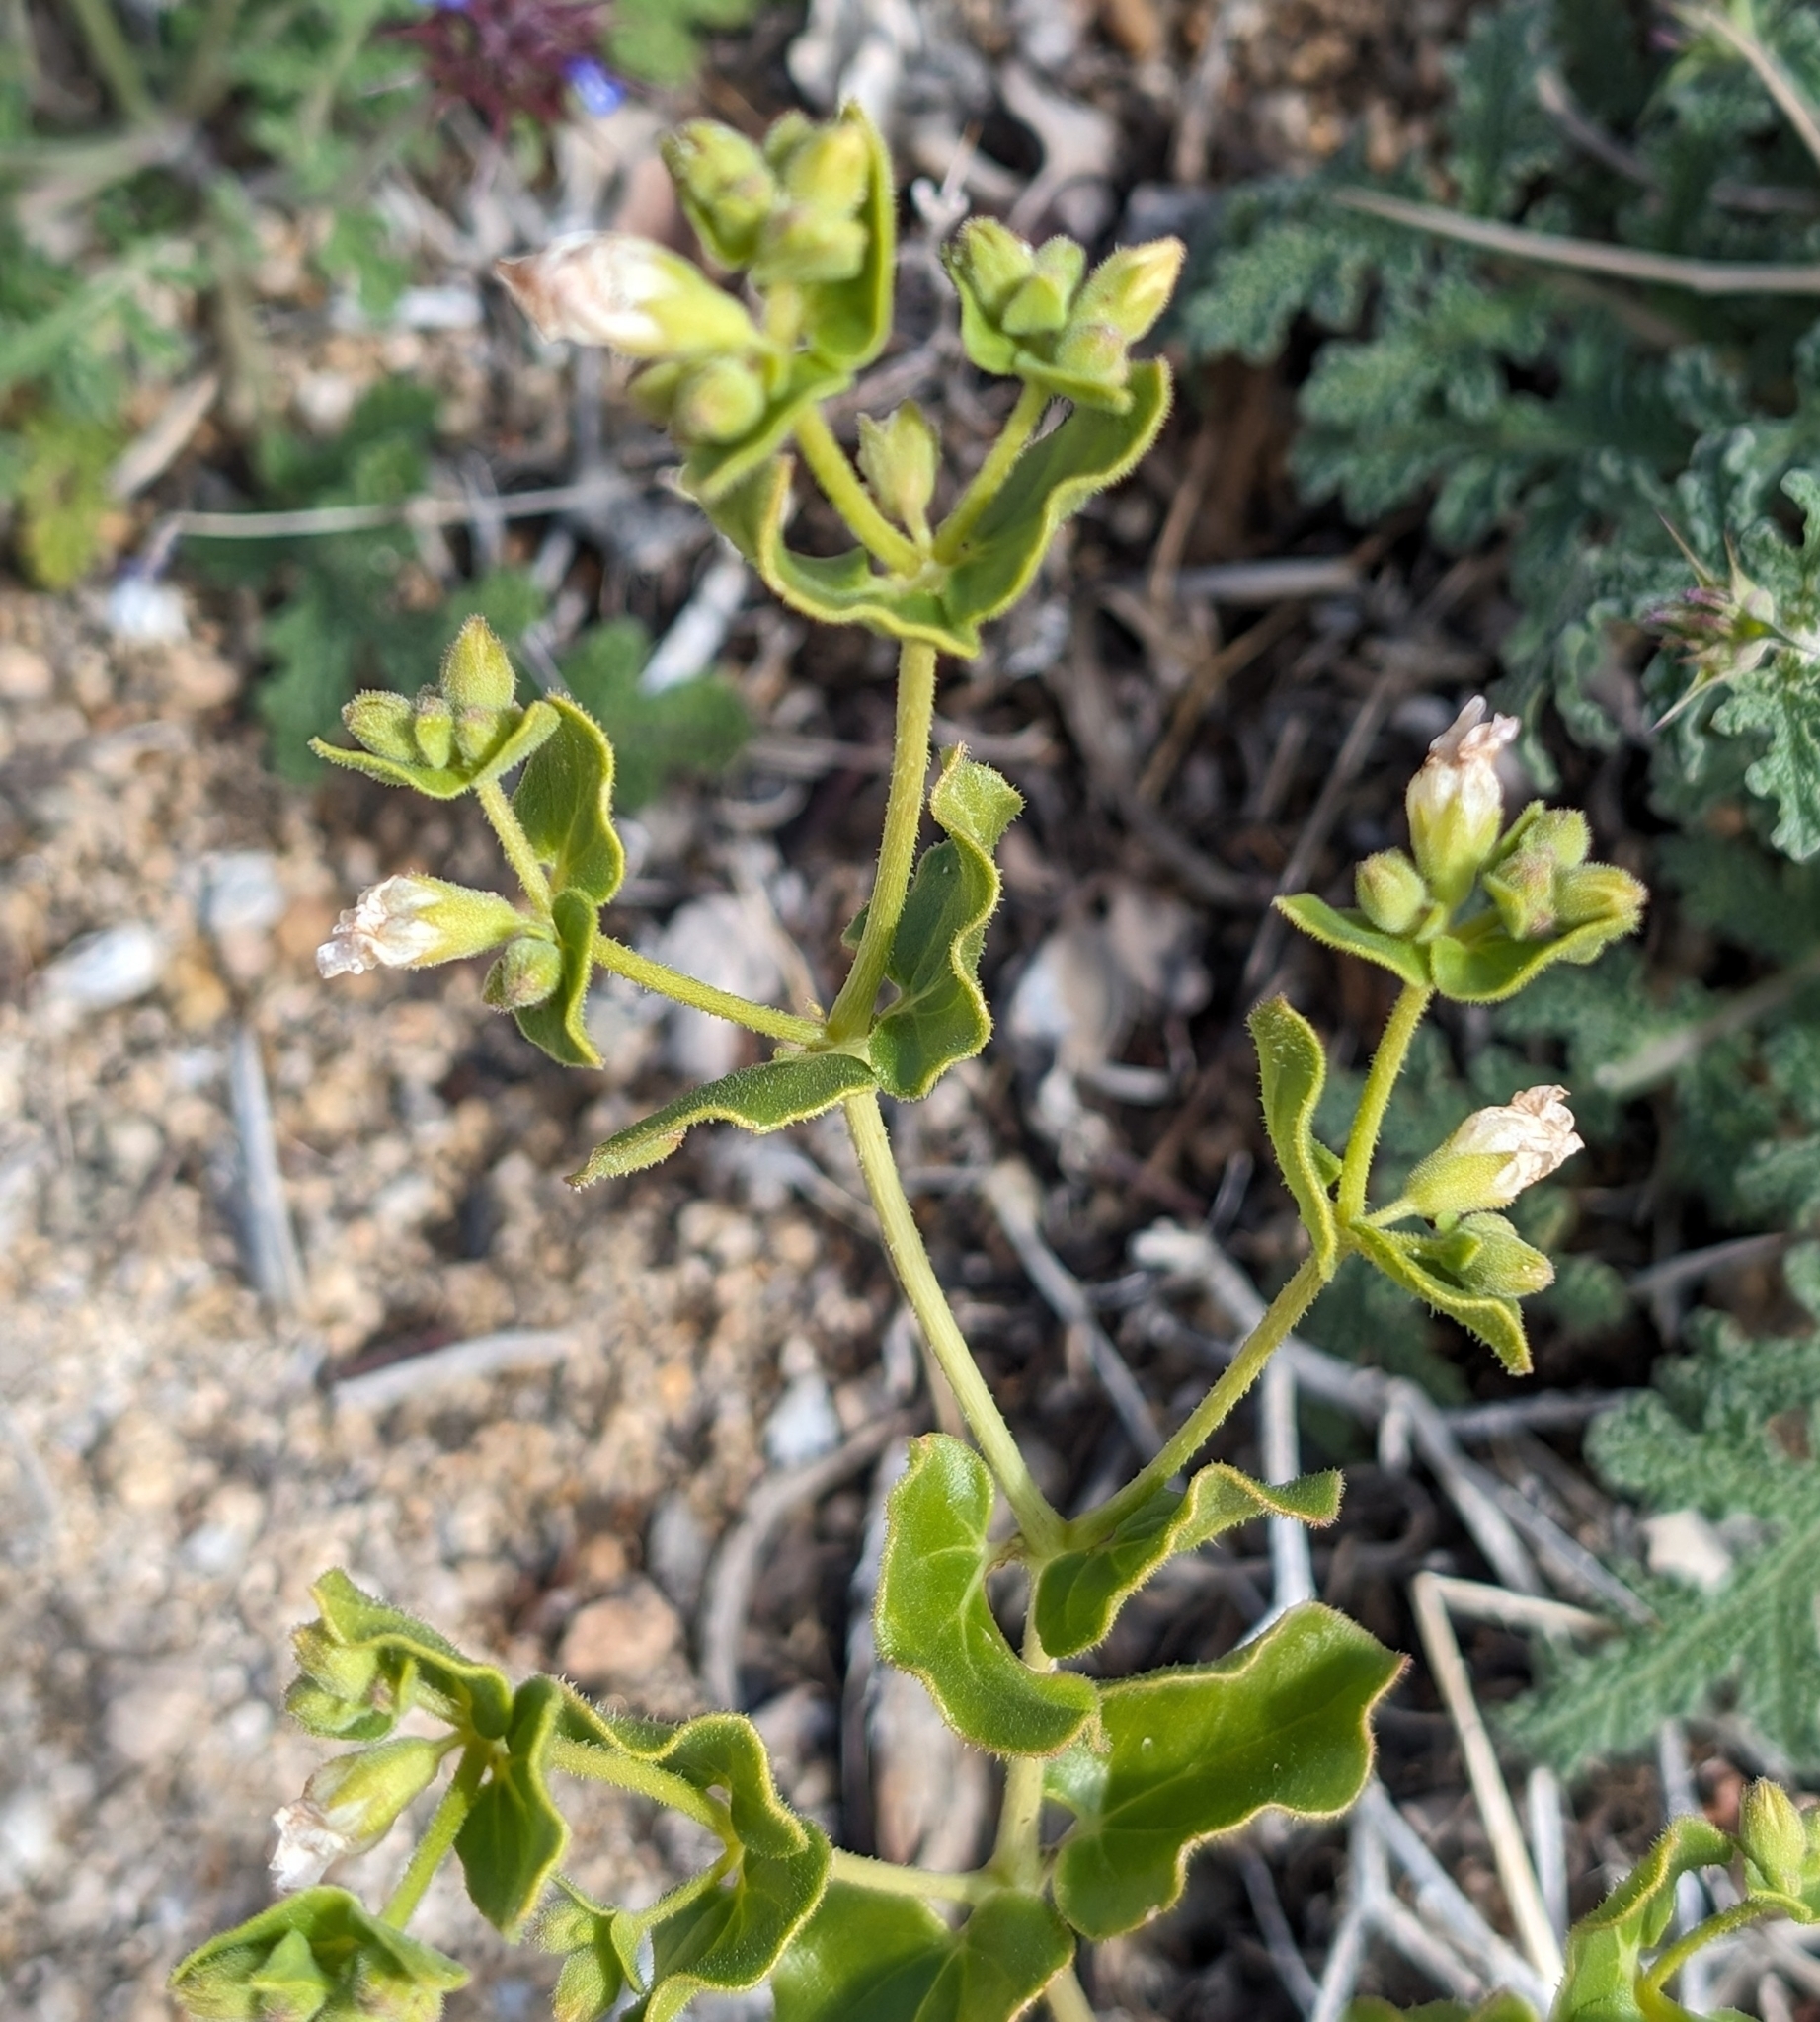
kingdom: Plantae
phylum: Tracheophyta
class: Magnoliopsida
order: Caryophyllales
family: Nyctaginaceae
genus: Mirabilis
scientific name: Mirabilis laevis
